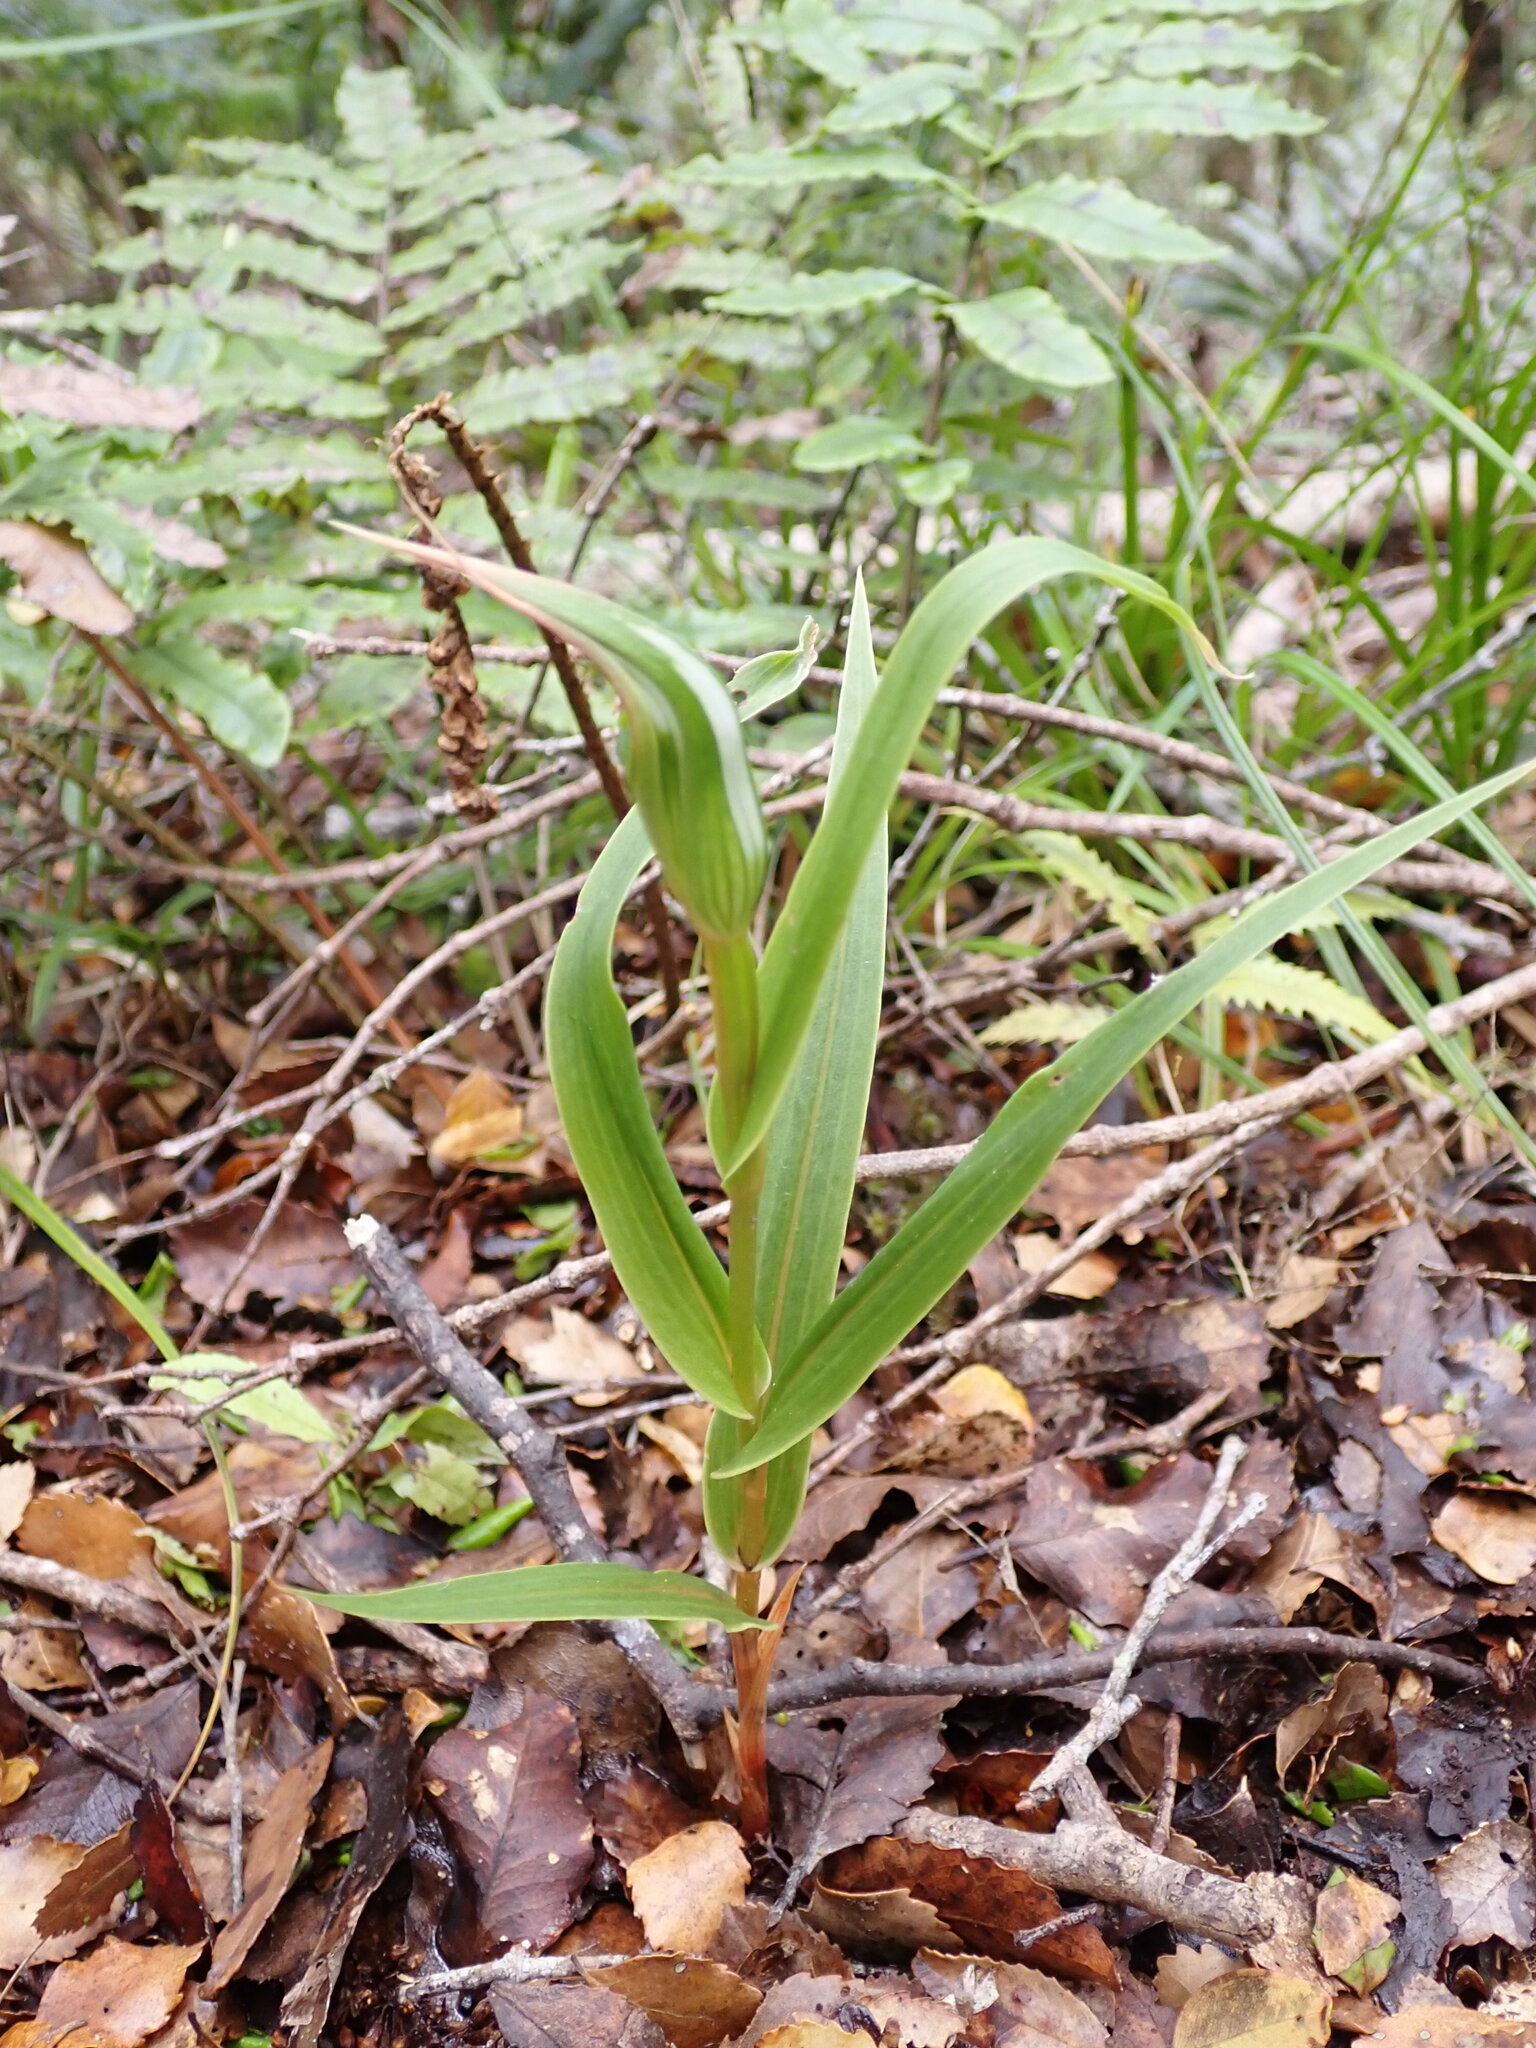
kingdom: Plantae
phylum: Tracheophyta
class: Liliopsida
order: Asparagales
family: Orchidaceae
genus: Pterostylis
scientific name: Pterostylis cardiostigma
